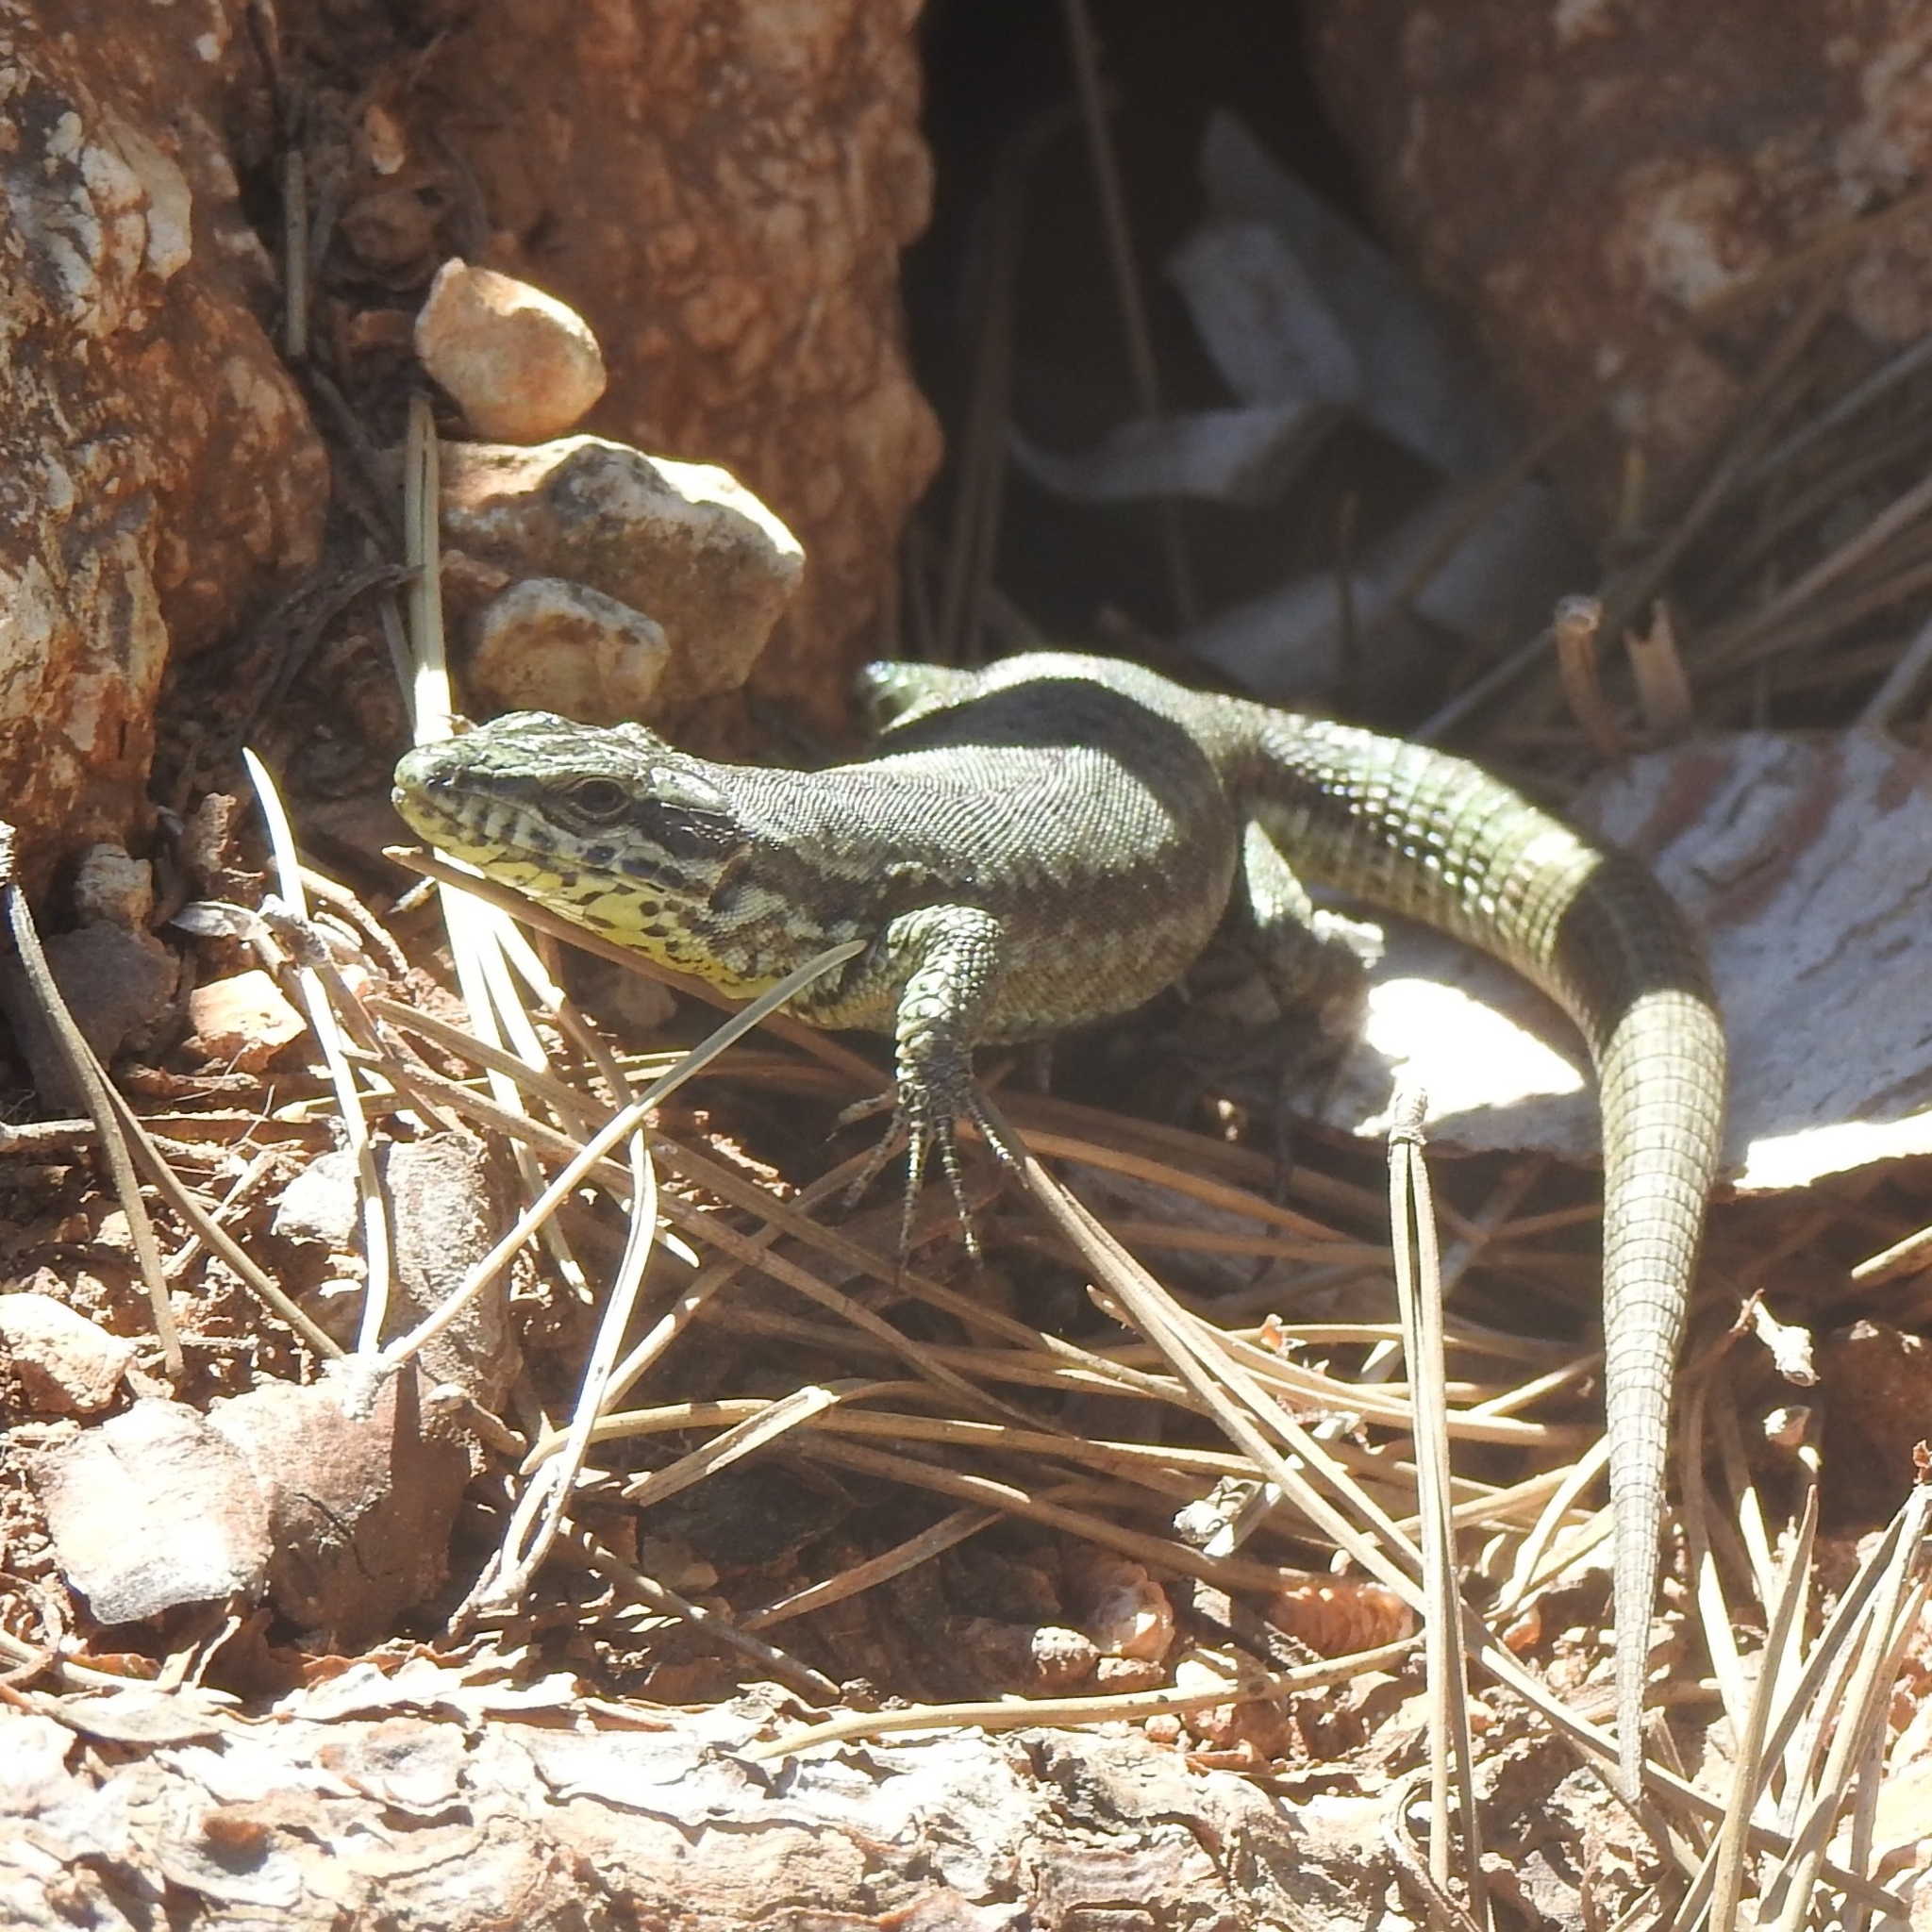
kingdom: Animalia
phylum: Chordata
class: Squamata
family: Lacertidae
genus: Podarcis
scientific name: Podarcis muralis
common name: Common wall lizard
